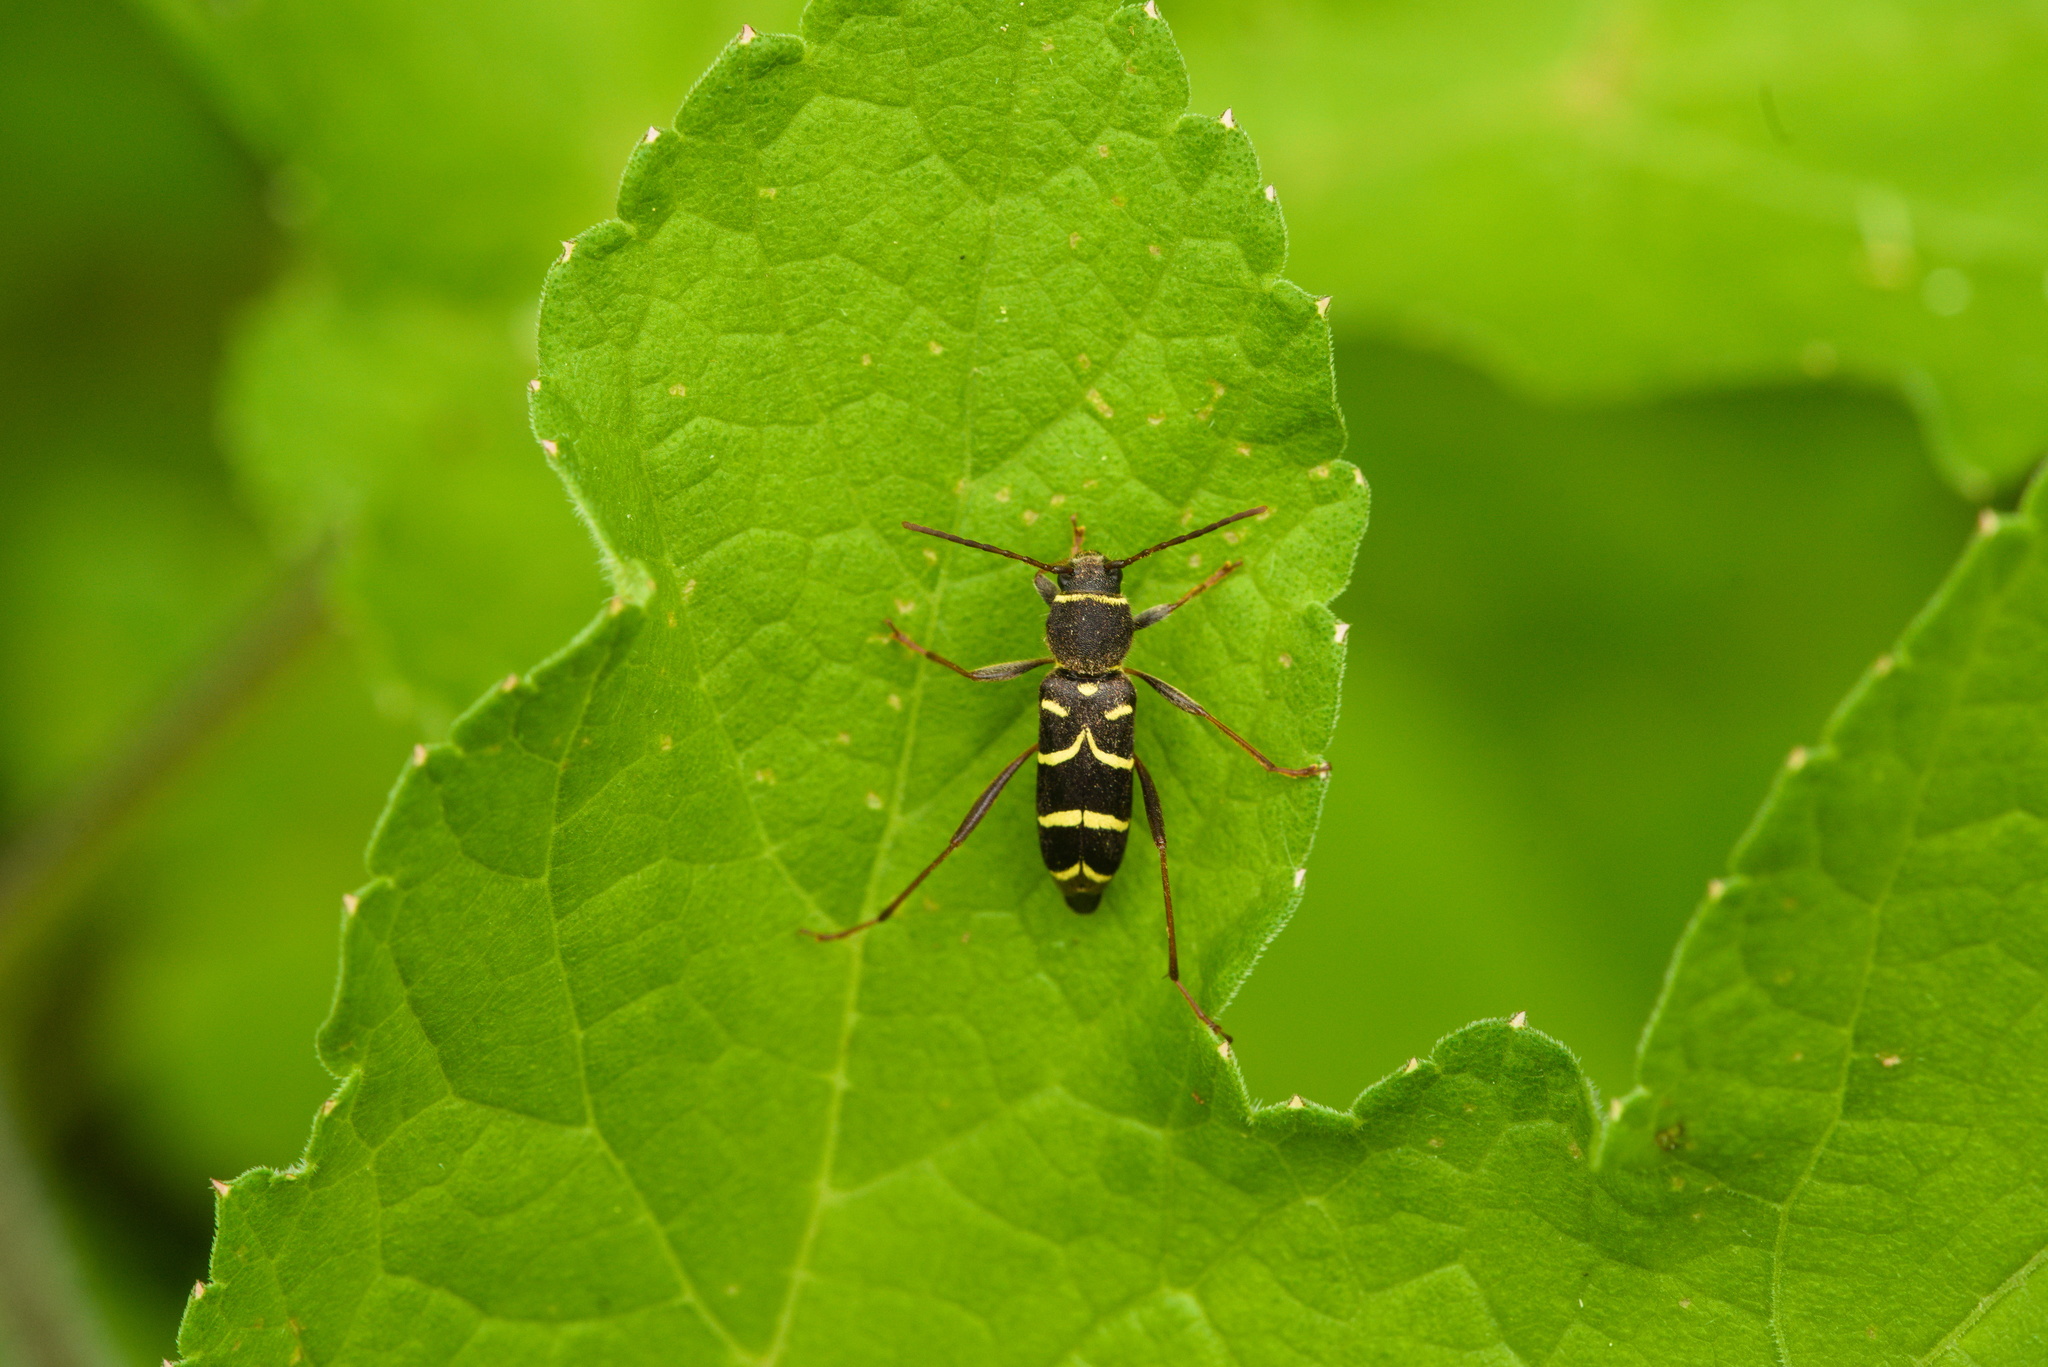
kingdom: Animalia
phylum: Arthropoda
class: Insecta
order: Coleoptera
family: Cerambycidae
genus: Clytus
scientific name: Clytus lama
